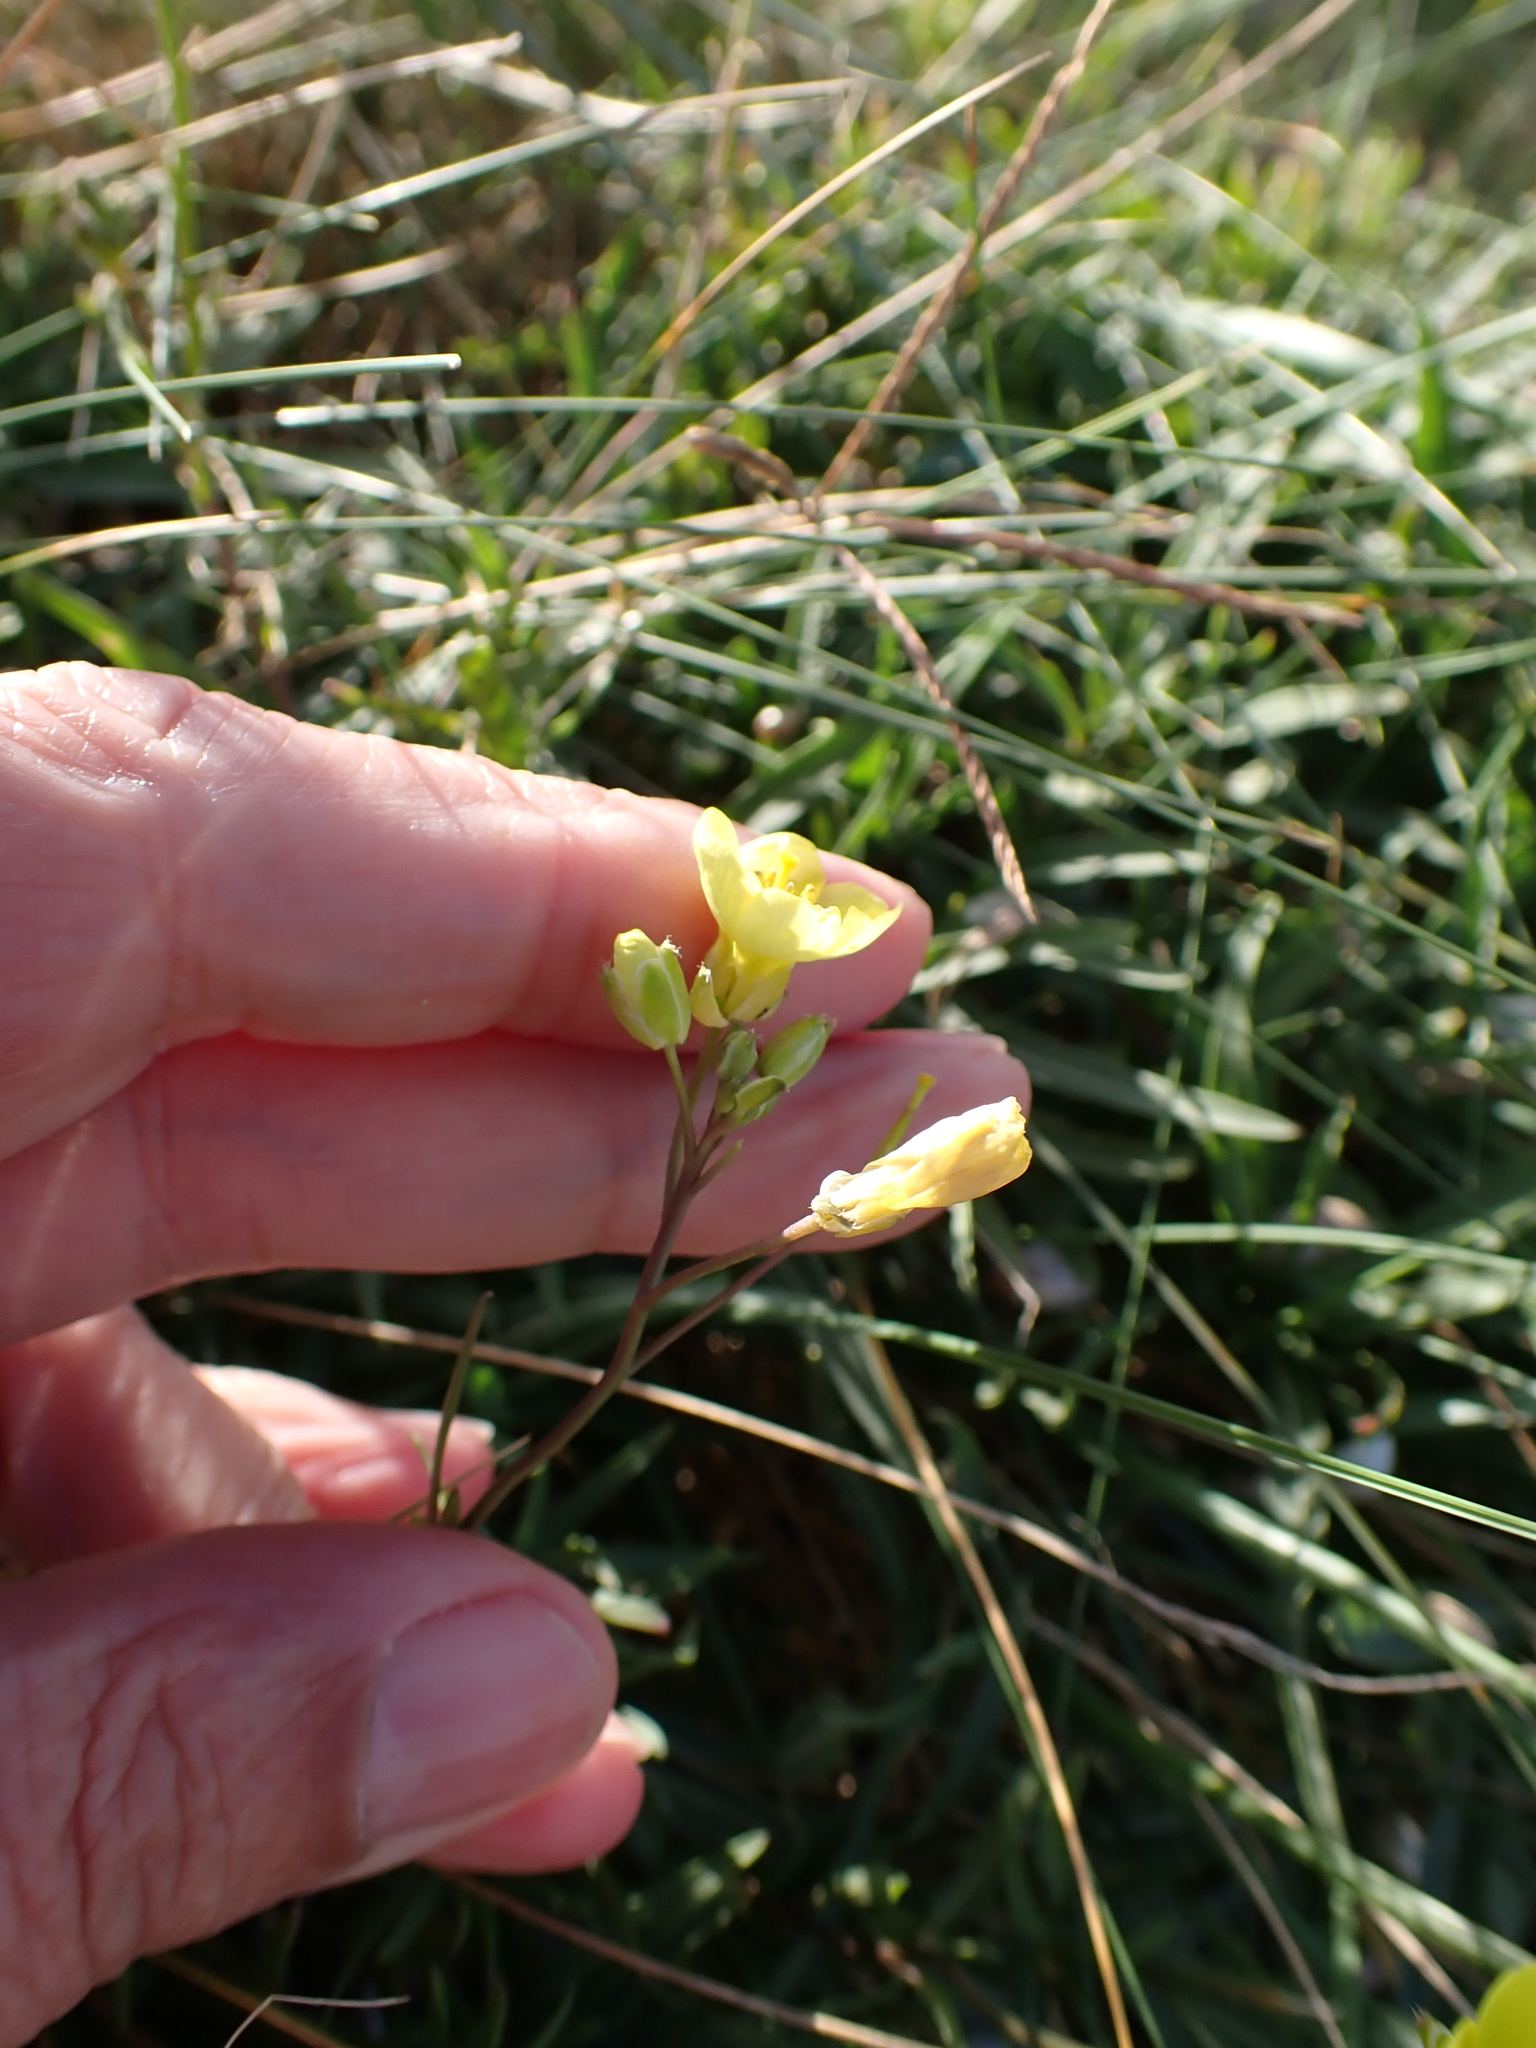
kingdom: Plantae
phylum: Tracheophyta
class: Magnoliopsida
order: Brassicales
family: Brassicaceae
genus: Diplotaxis
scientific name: Diplotaxis tenuifolia
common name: Perennial wall-rocket
